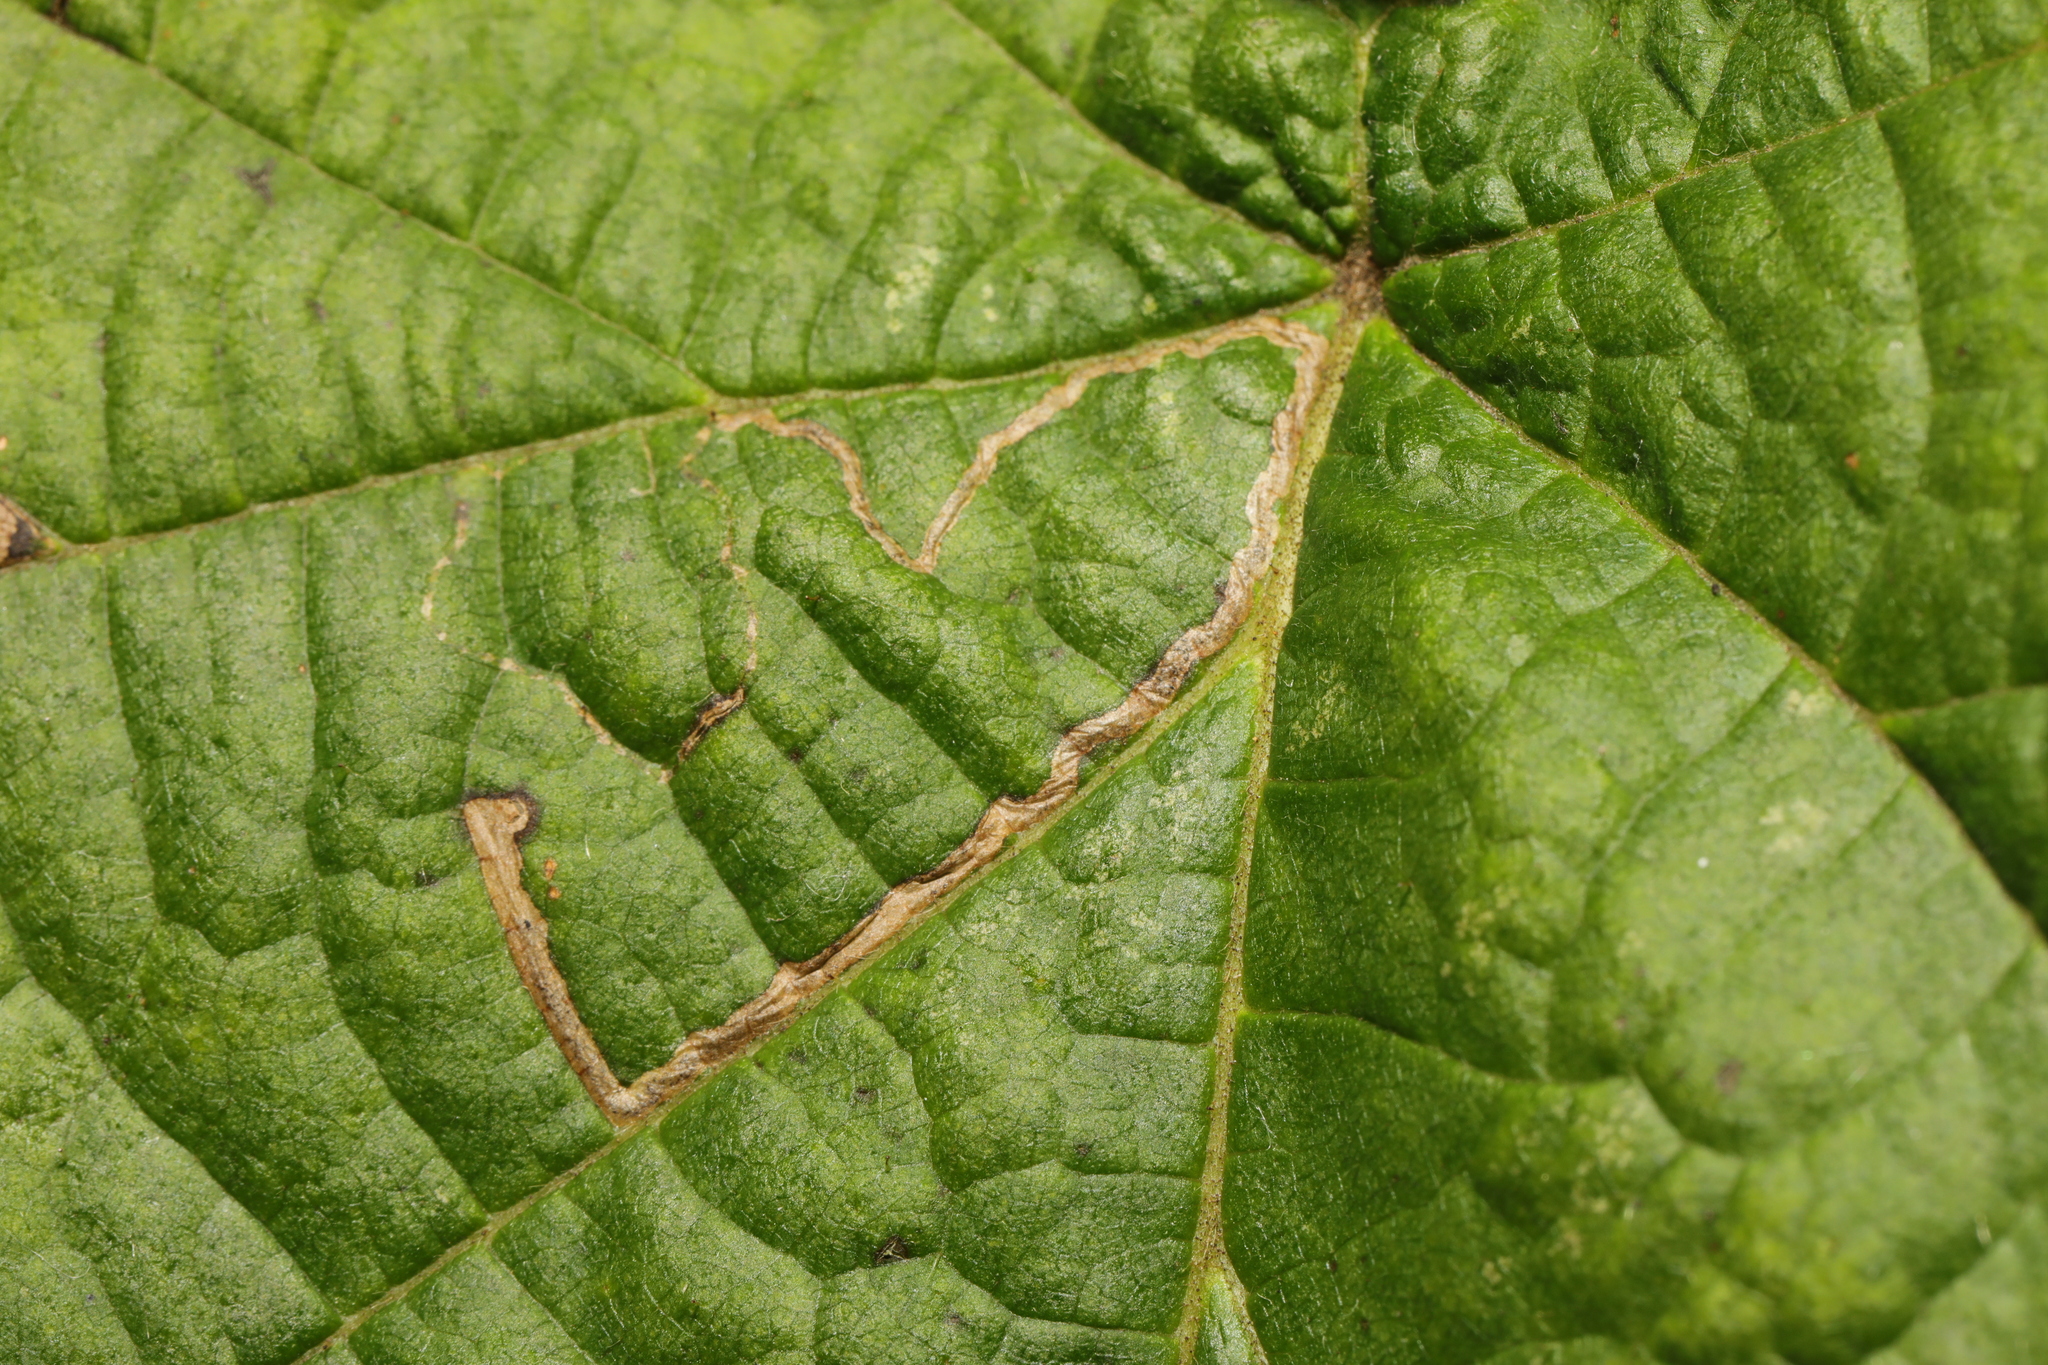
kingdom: Animalia
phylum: Arthropoda
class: Insecta
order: Lepidoptera
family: Nepticulidae
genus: Stigmella
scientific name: Stigmella microtheriella
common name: Nut-tree pigmy
